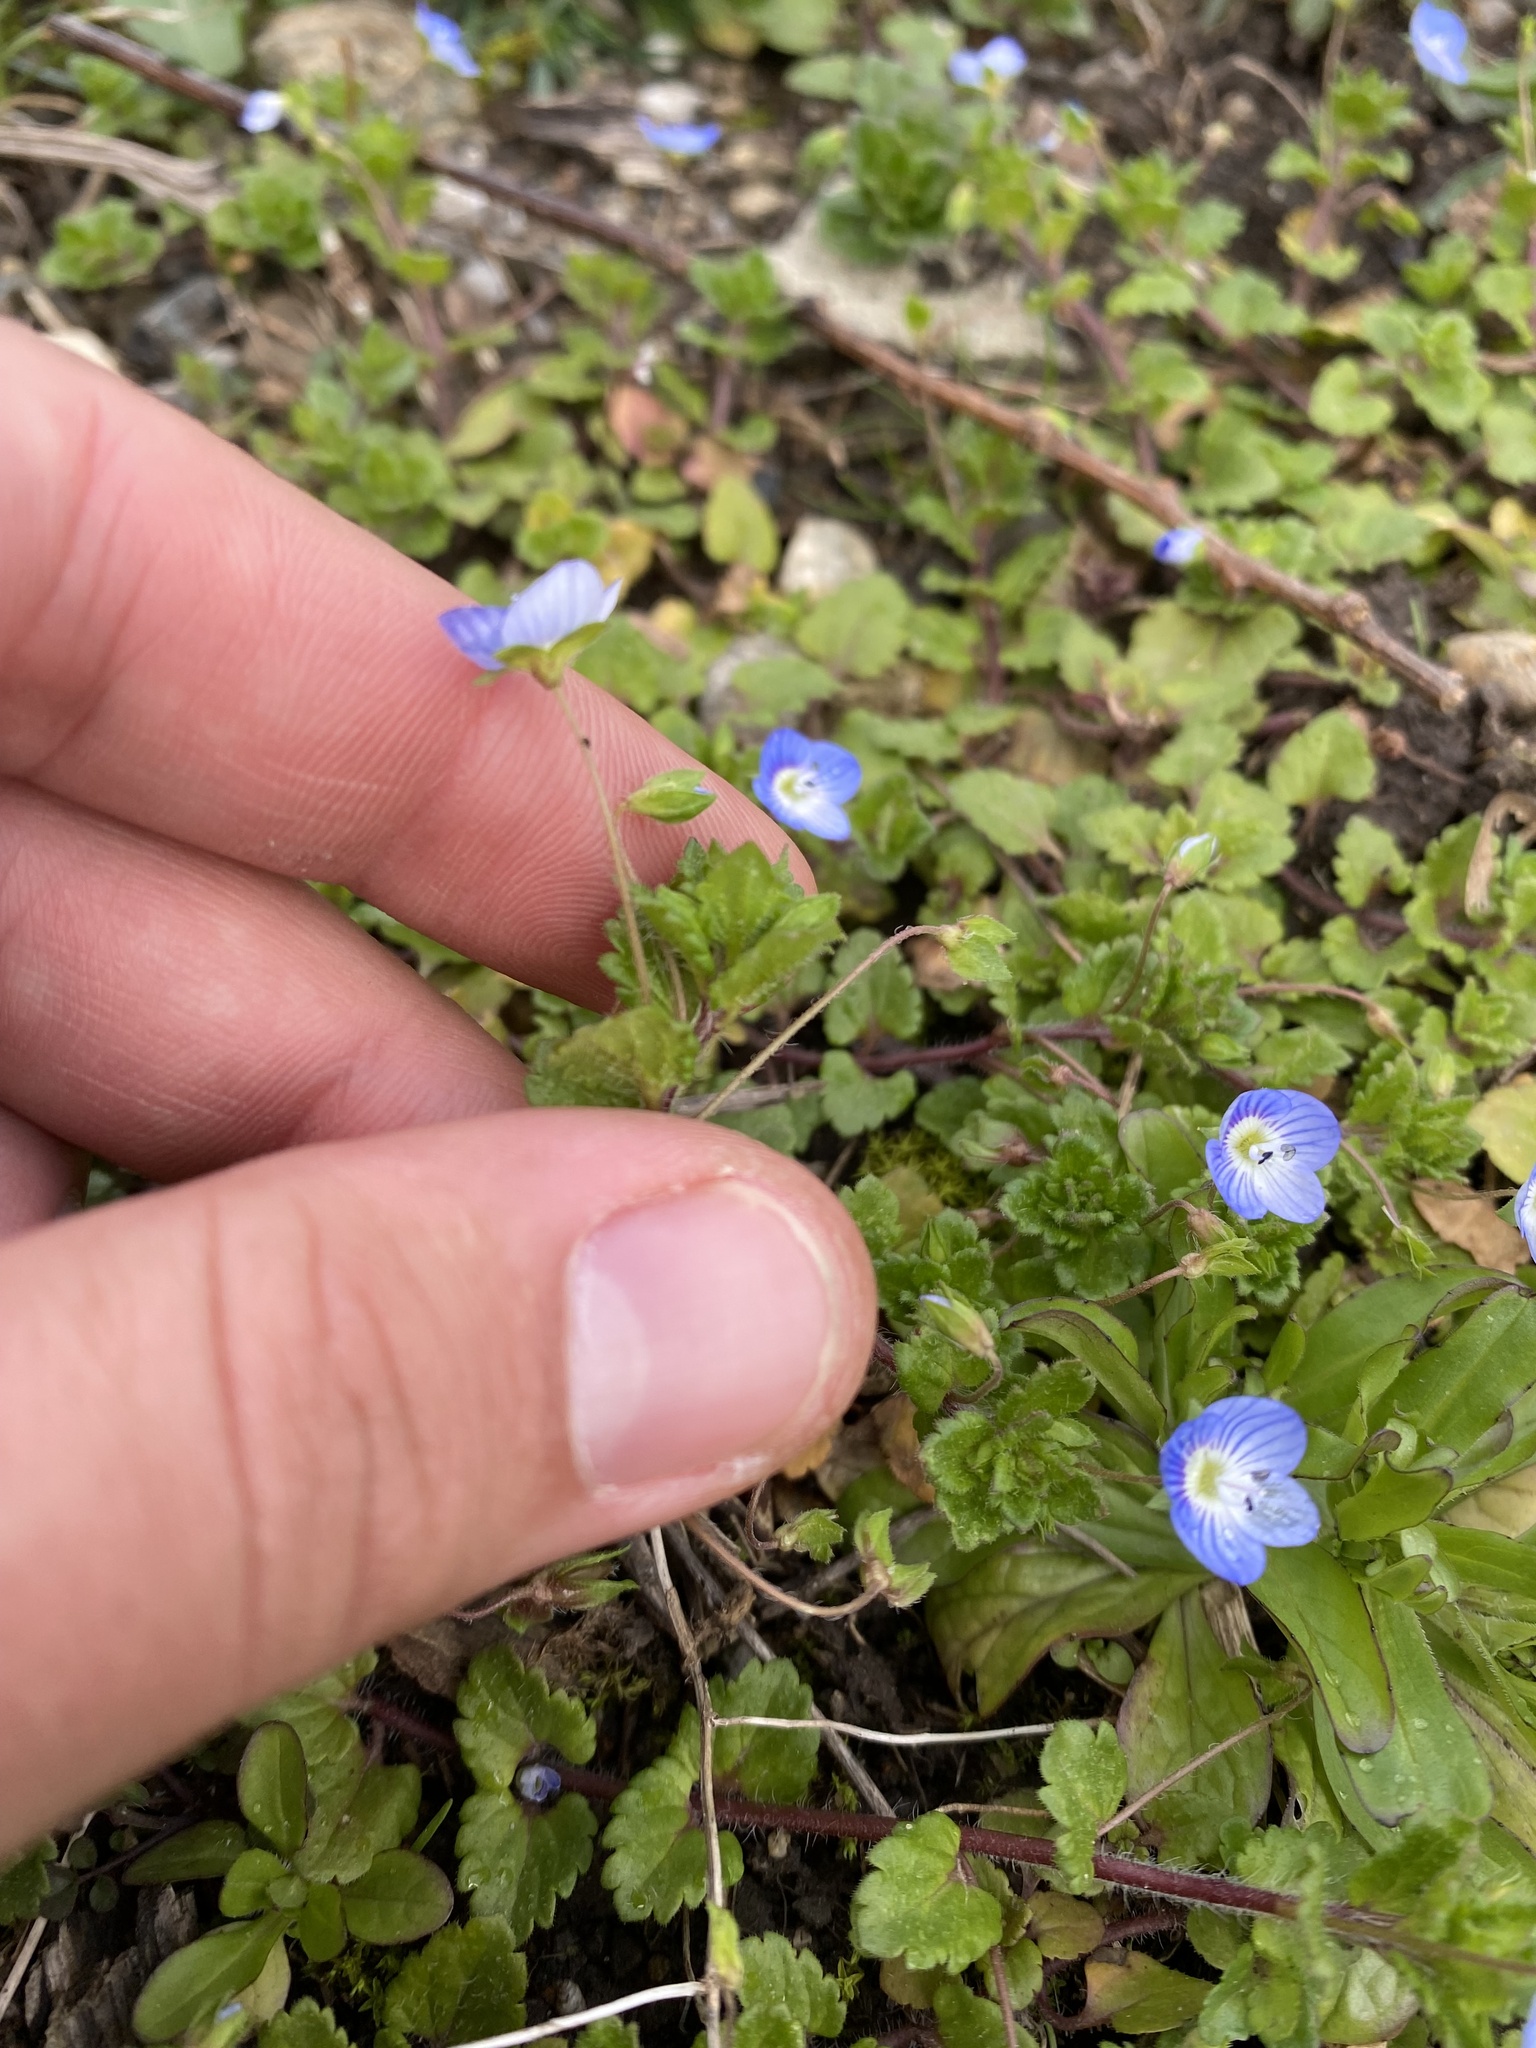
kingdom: Plantae
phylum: Tracheophyta
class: Magnoliopsida
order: Lamiales
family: Plantaginaceae
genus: Veronica
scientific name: Veronica persica
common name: Common field-speedwell
